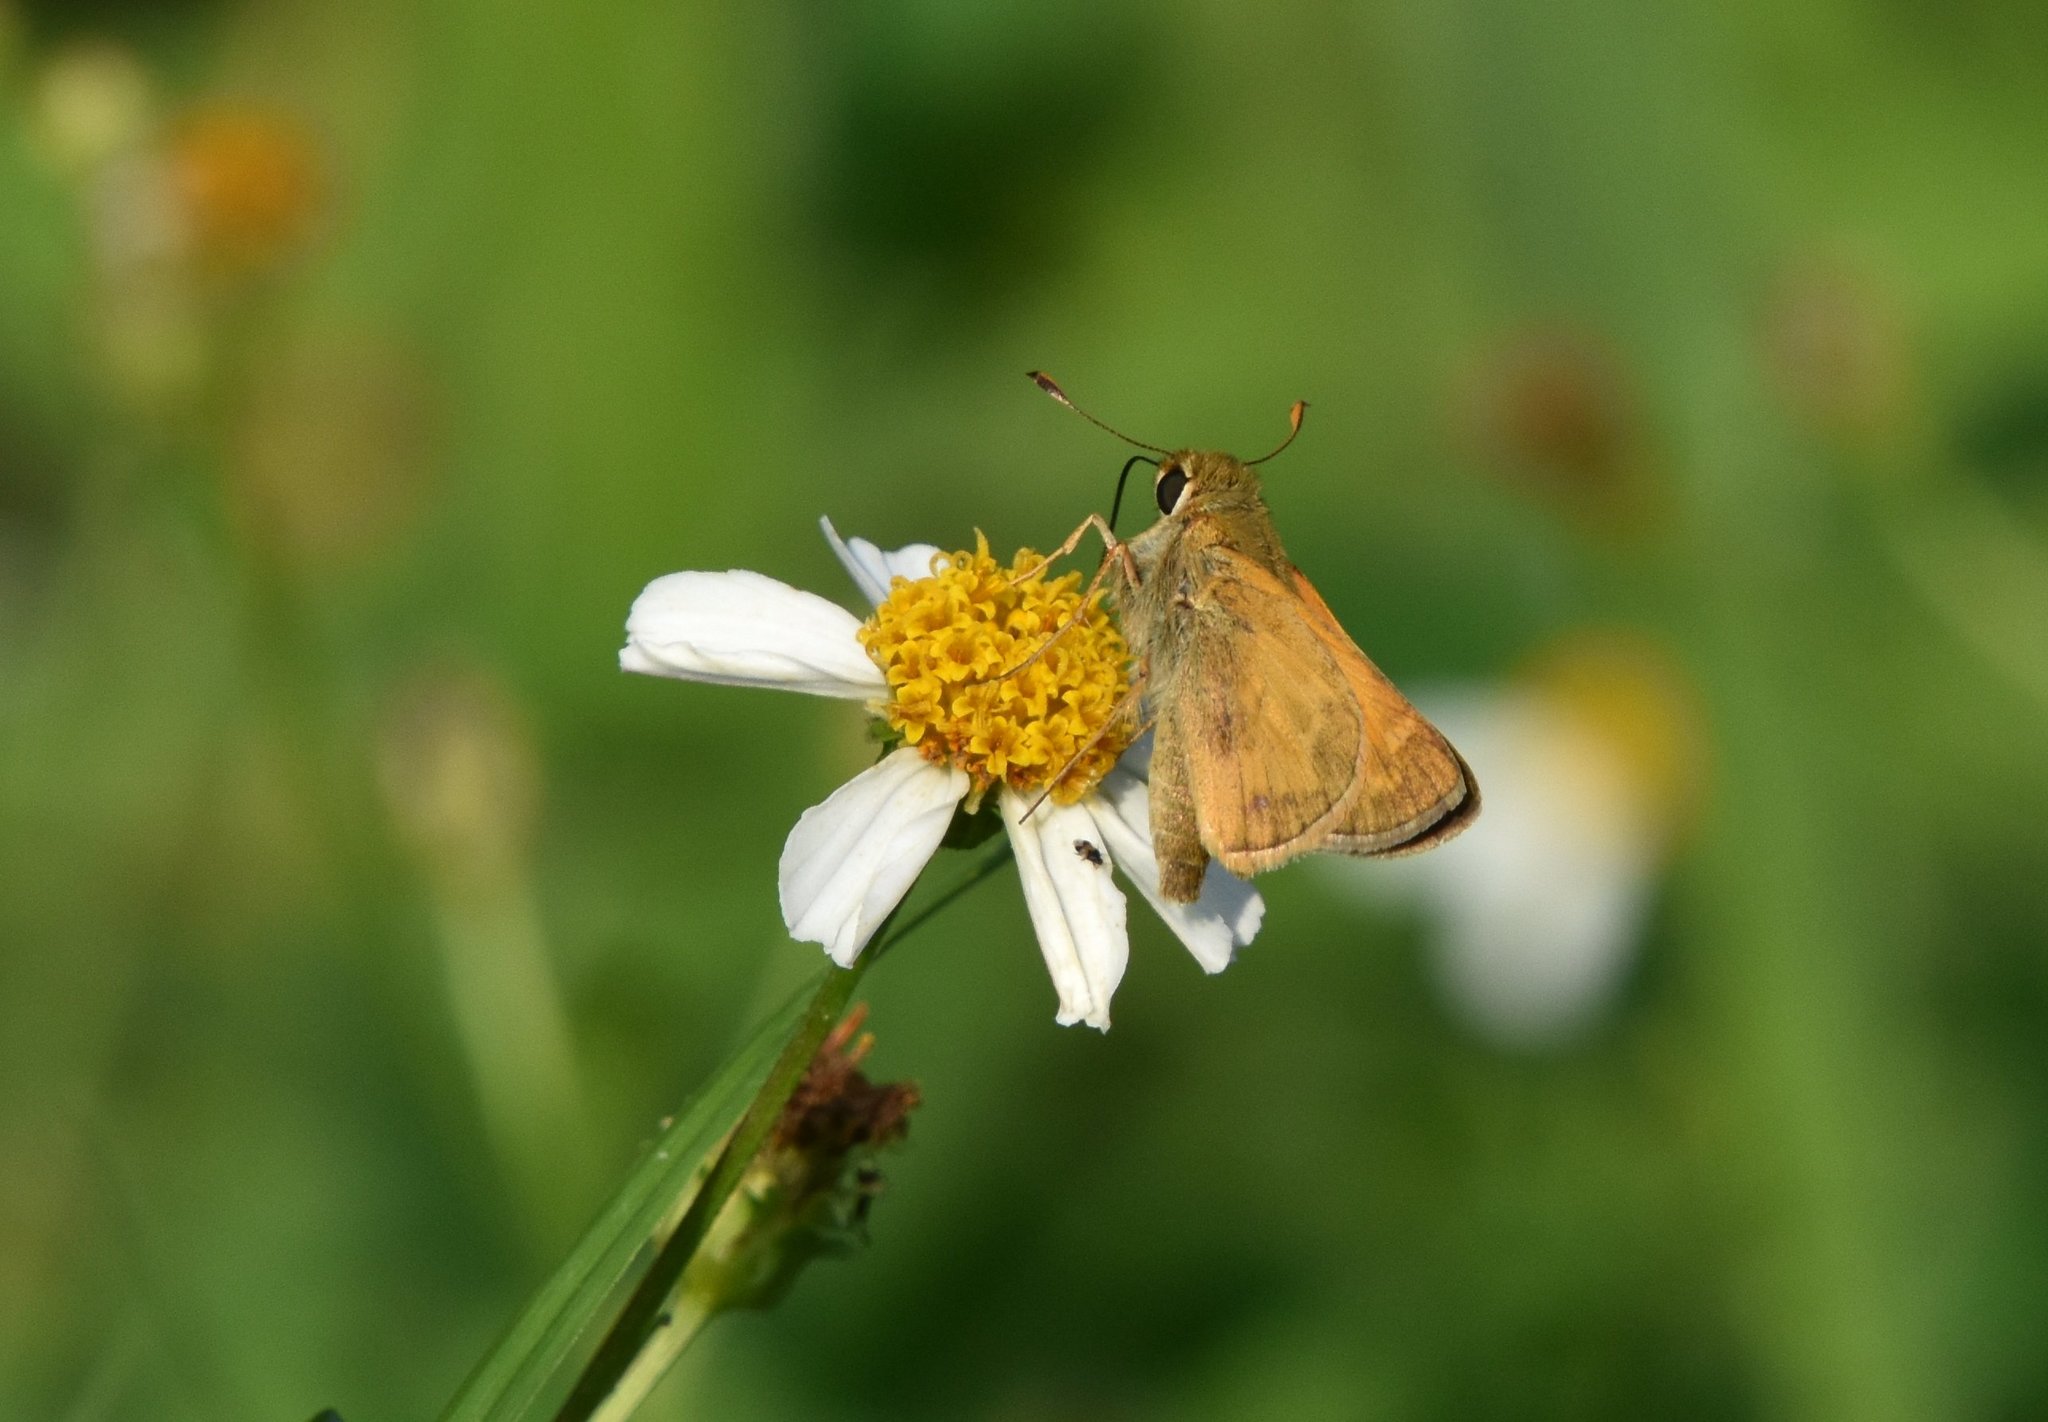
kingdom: Animalia
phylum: Arthropoda
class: Insecta
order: Lepidoptera
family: Hesperiidae
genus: Atalopedes
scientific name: Atalopedes
